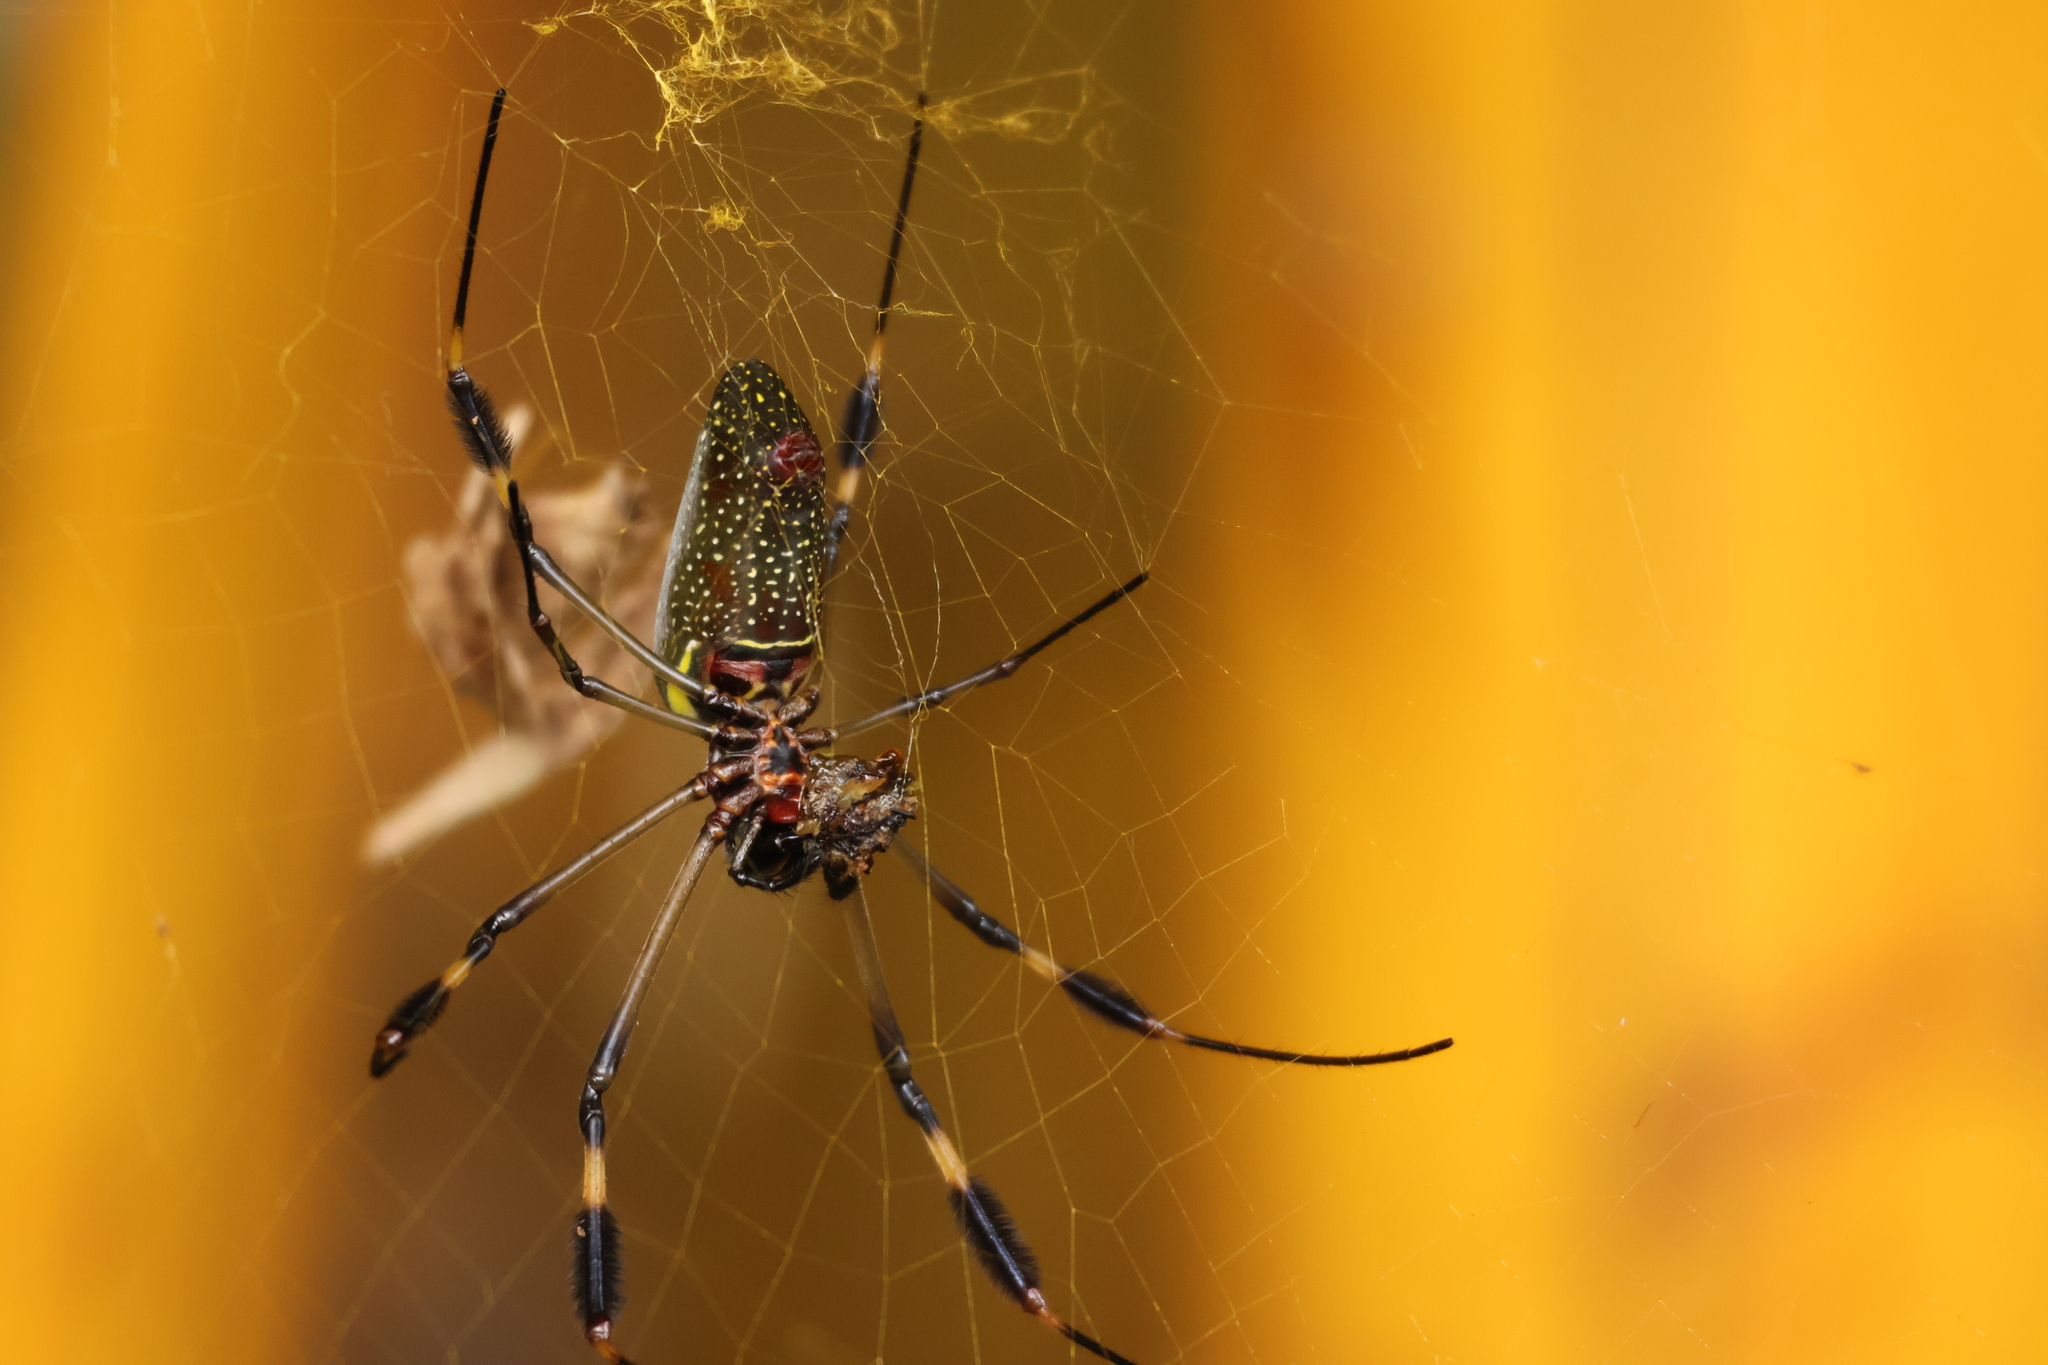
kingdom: Animalia
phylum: Arthropoda
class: Arachnida
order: Araneae
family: Araneidae
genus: Trichonephila
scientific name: Trichonephila clavipes
